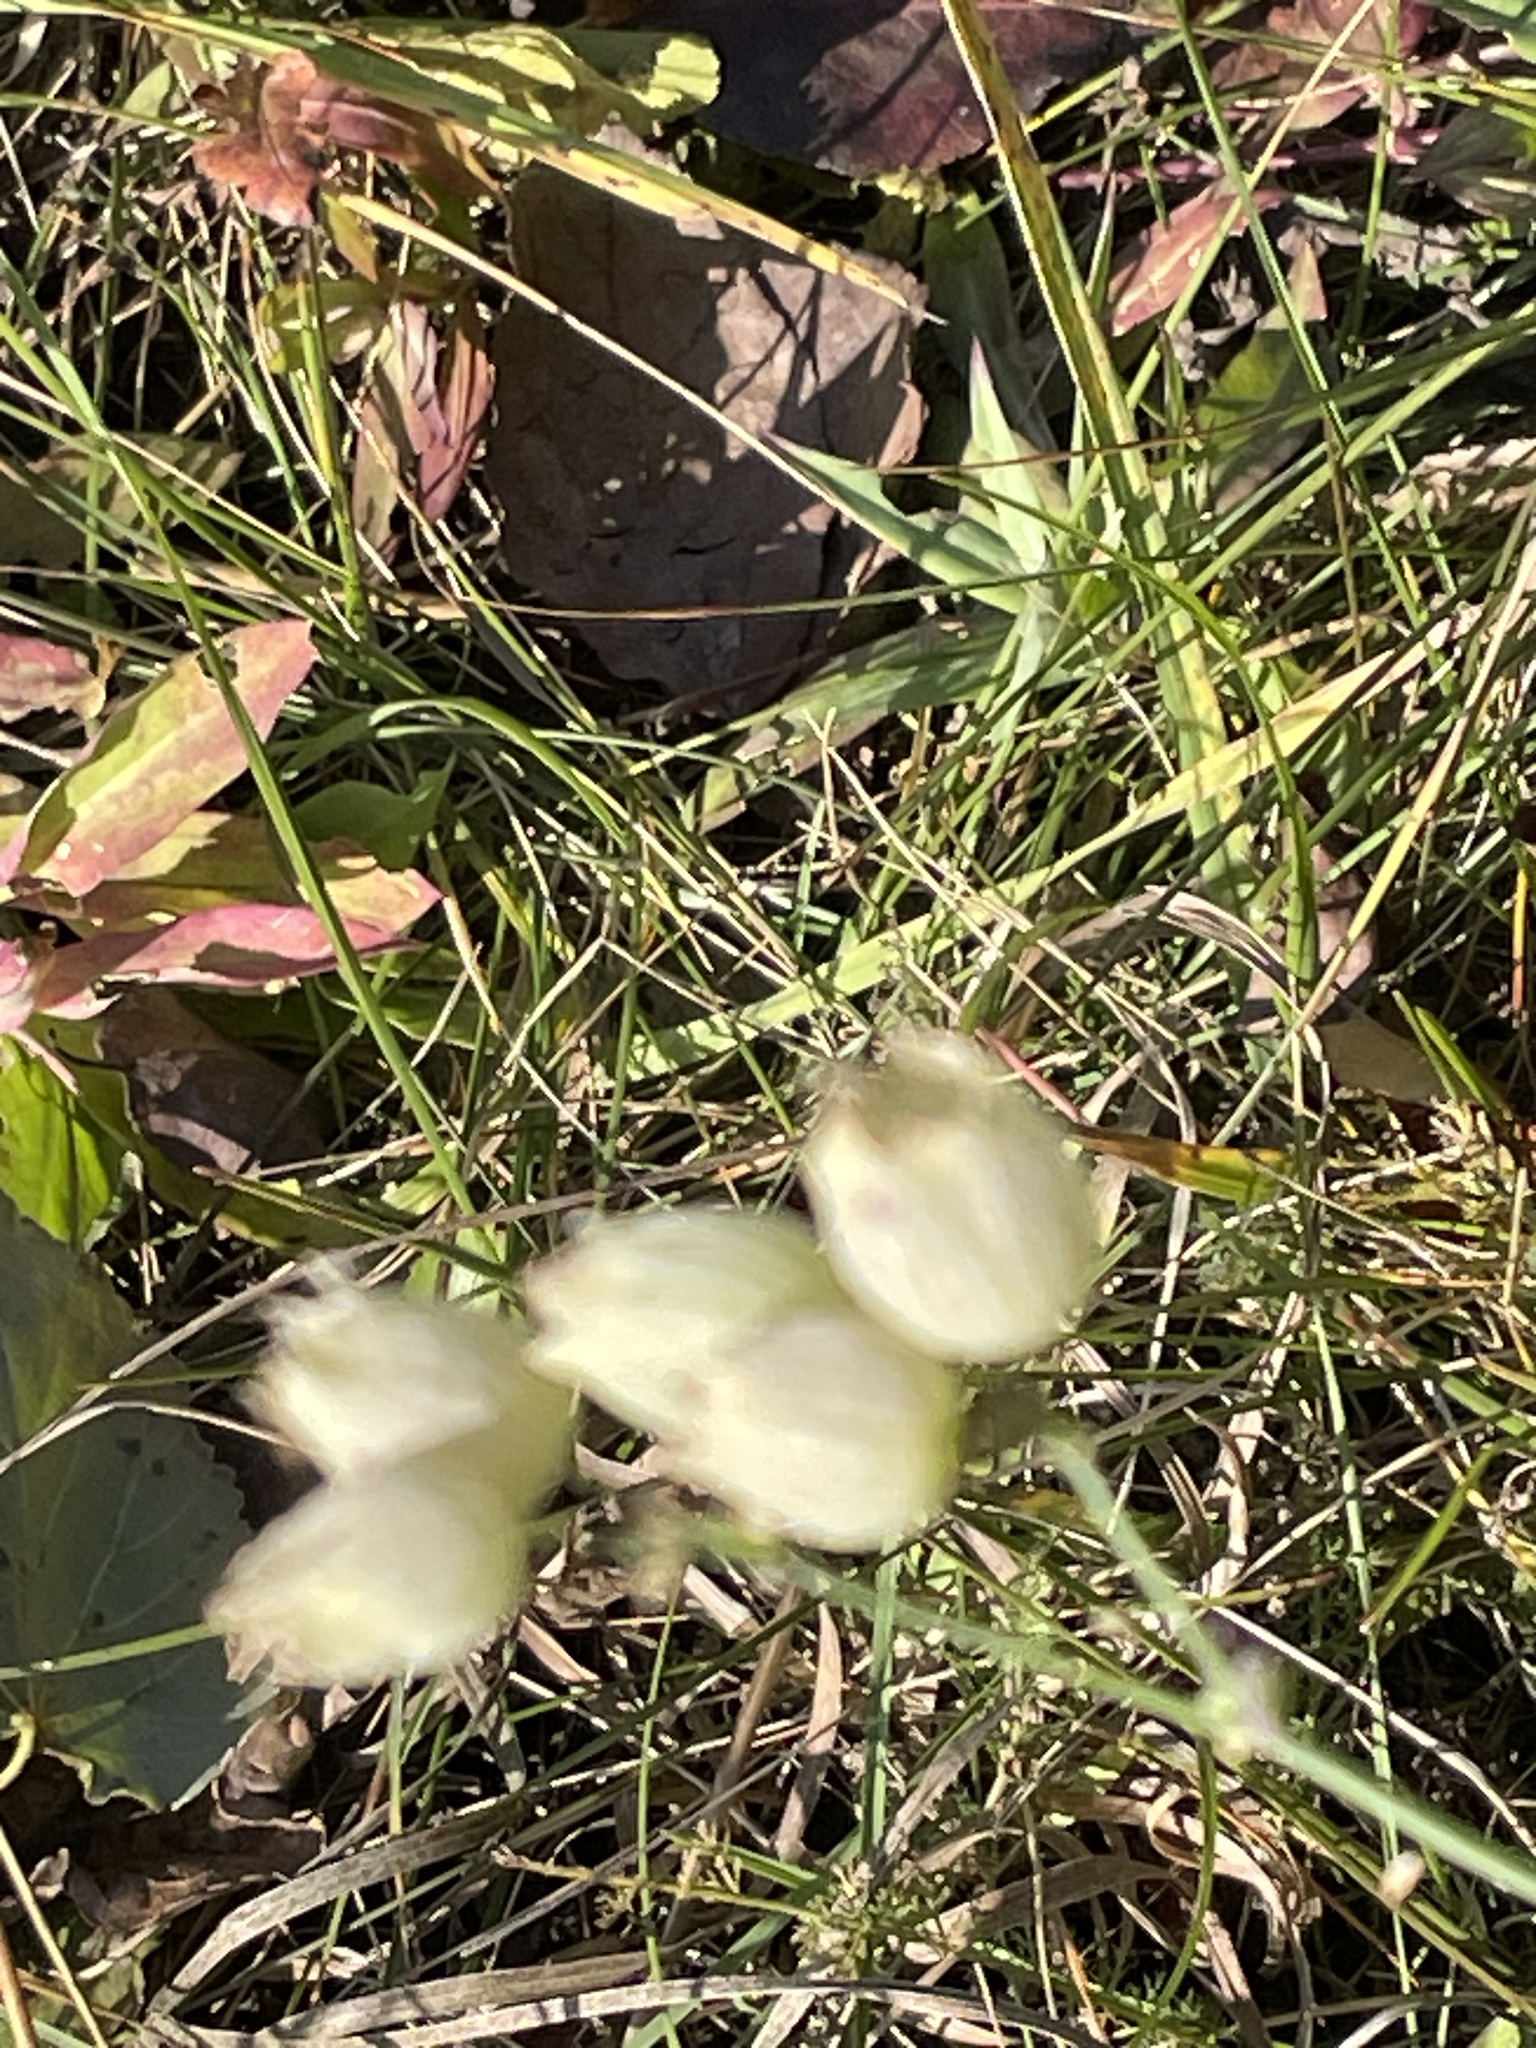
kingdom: Plantae
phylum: Tracheophyta
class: Magnoliopsida
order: Caryophyllales
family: Caryophyllaceae
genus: Silene
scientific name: Silene vulgaris
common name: Bladder campion
